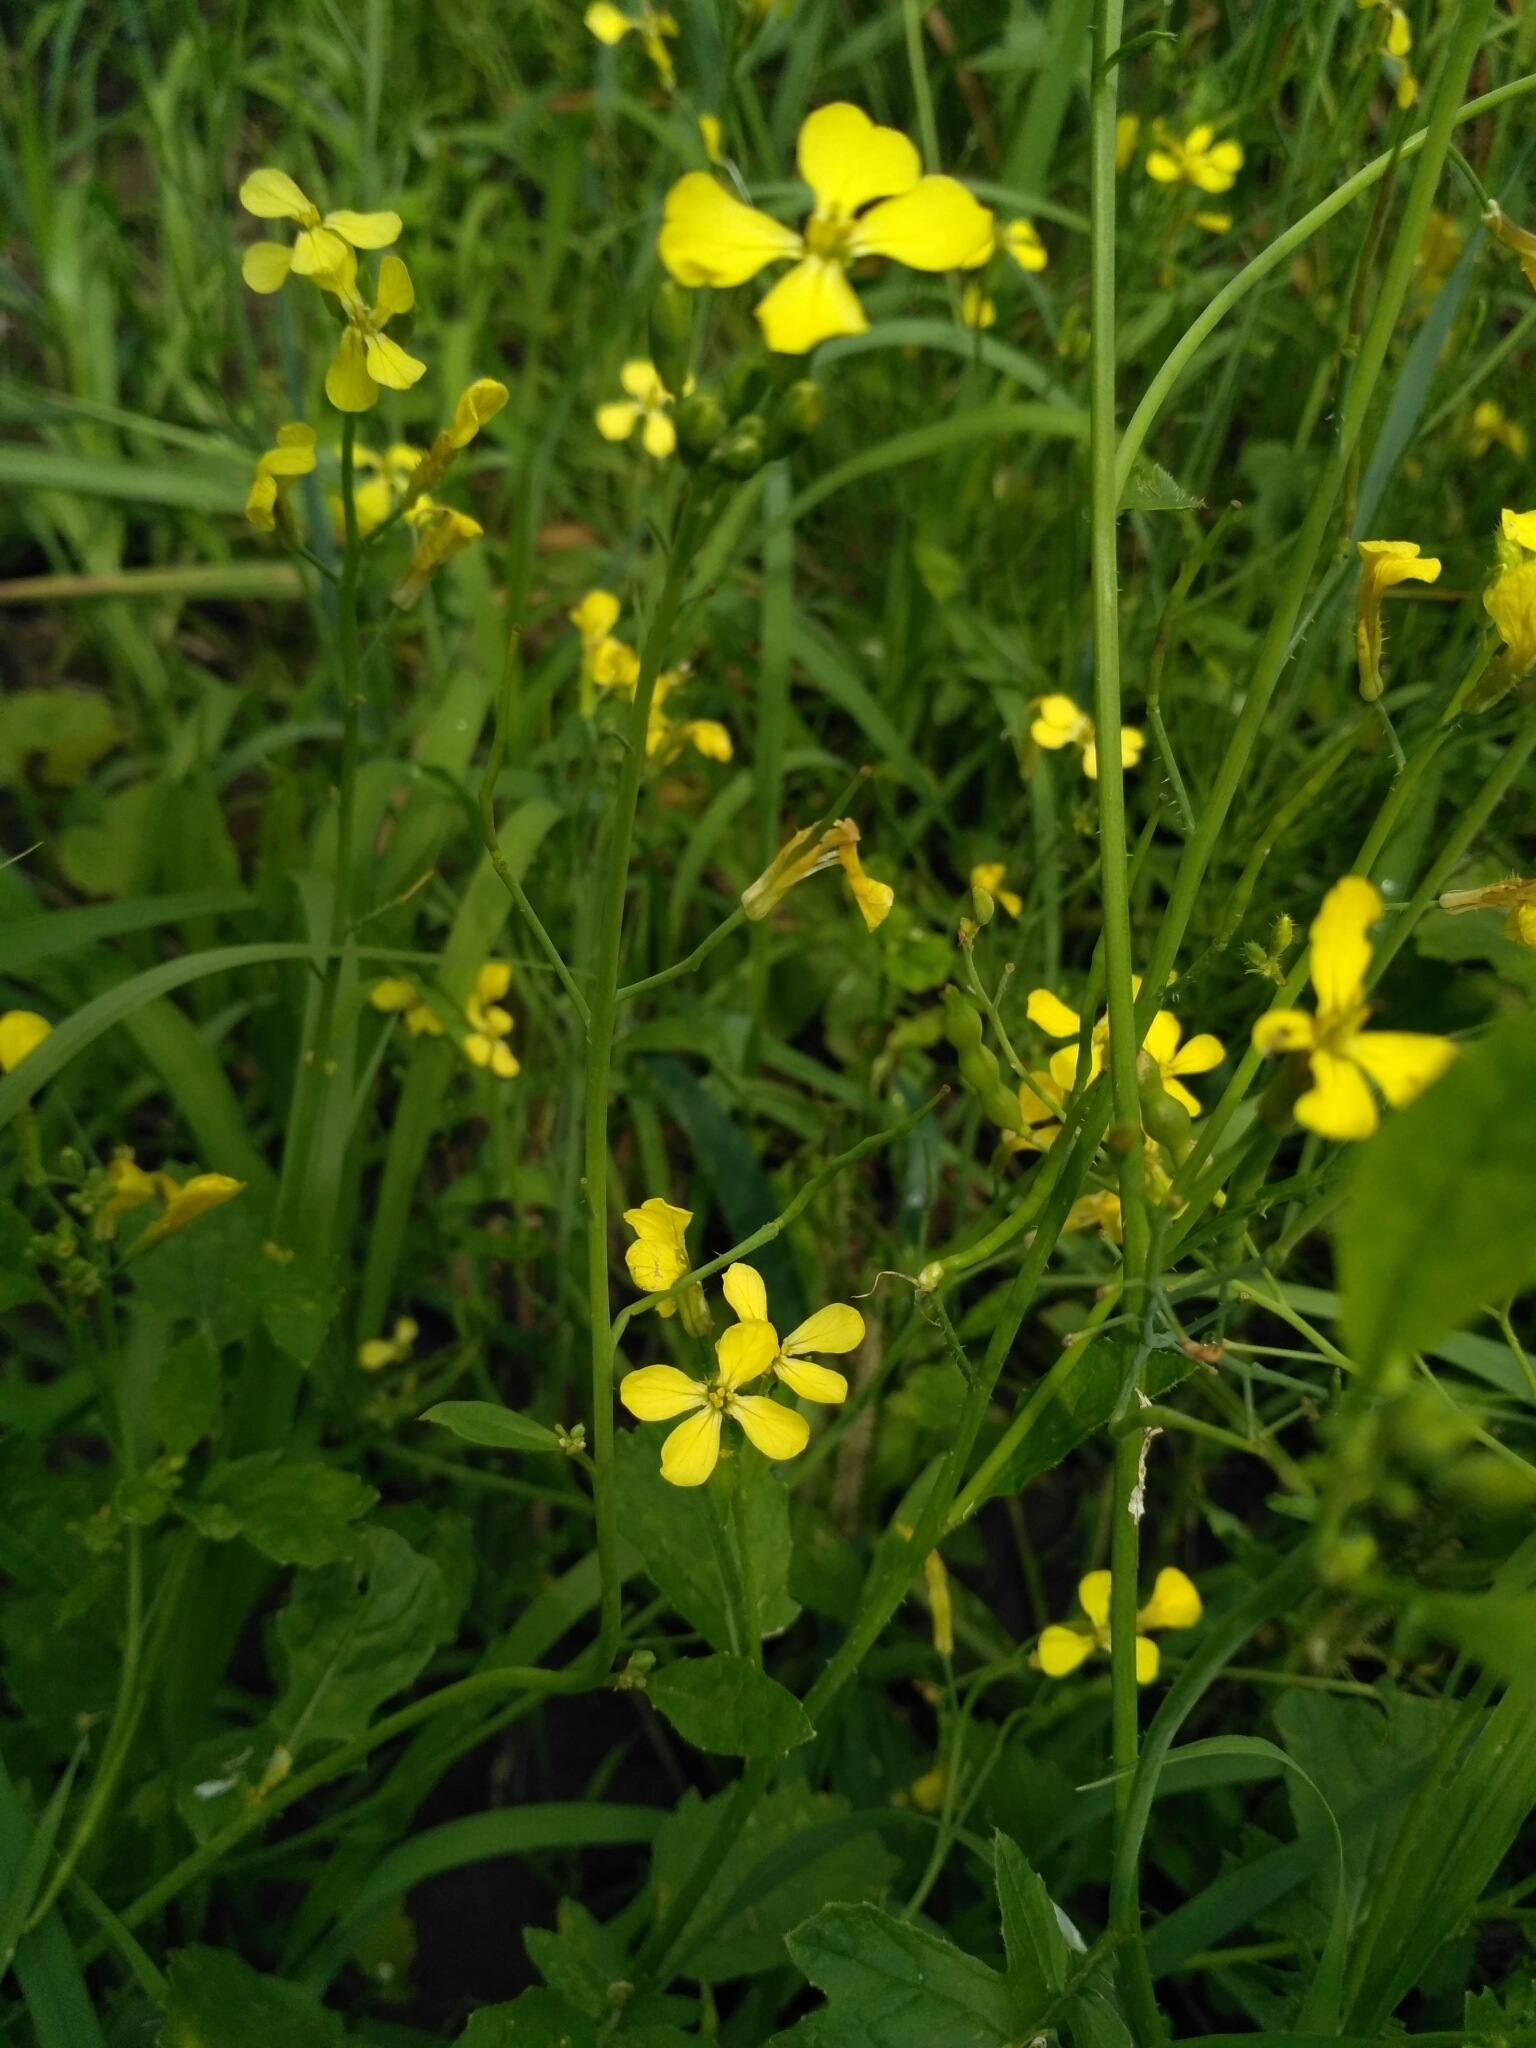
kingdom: Plantae
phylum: Tracheophyta
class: Magnoliopsida
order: Brassicales
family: Brassicaceae
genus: Raphanus
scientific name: Raphanus raphanistrum
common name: Wild radish
